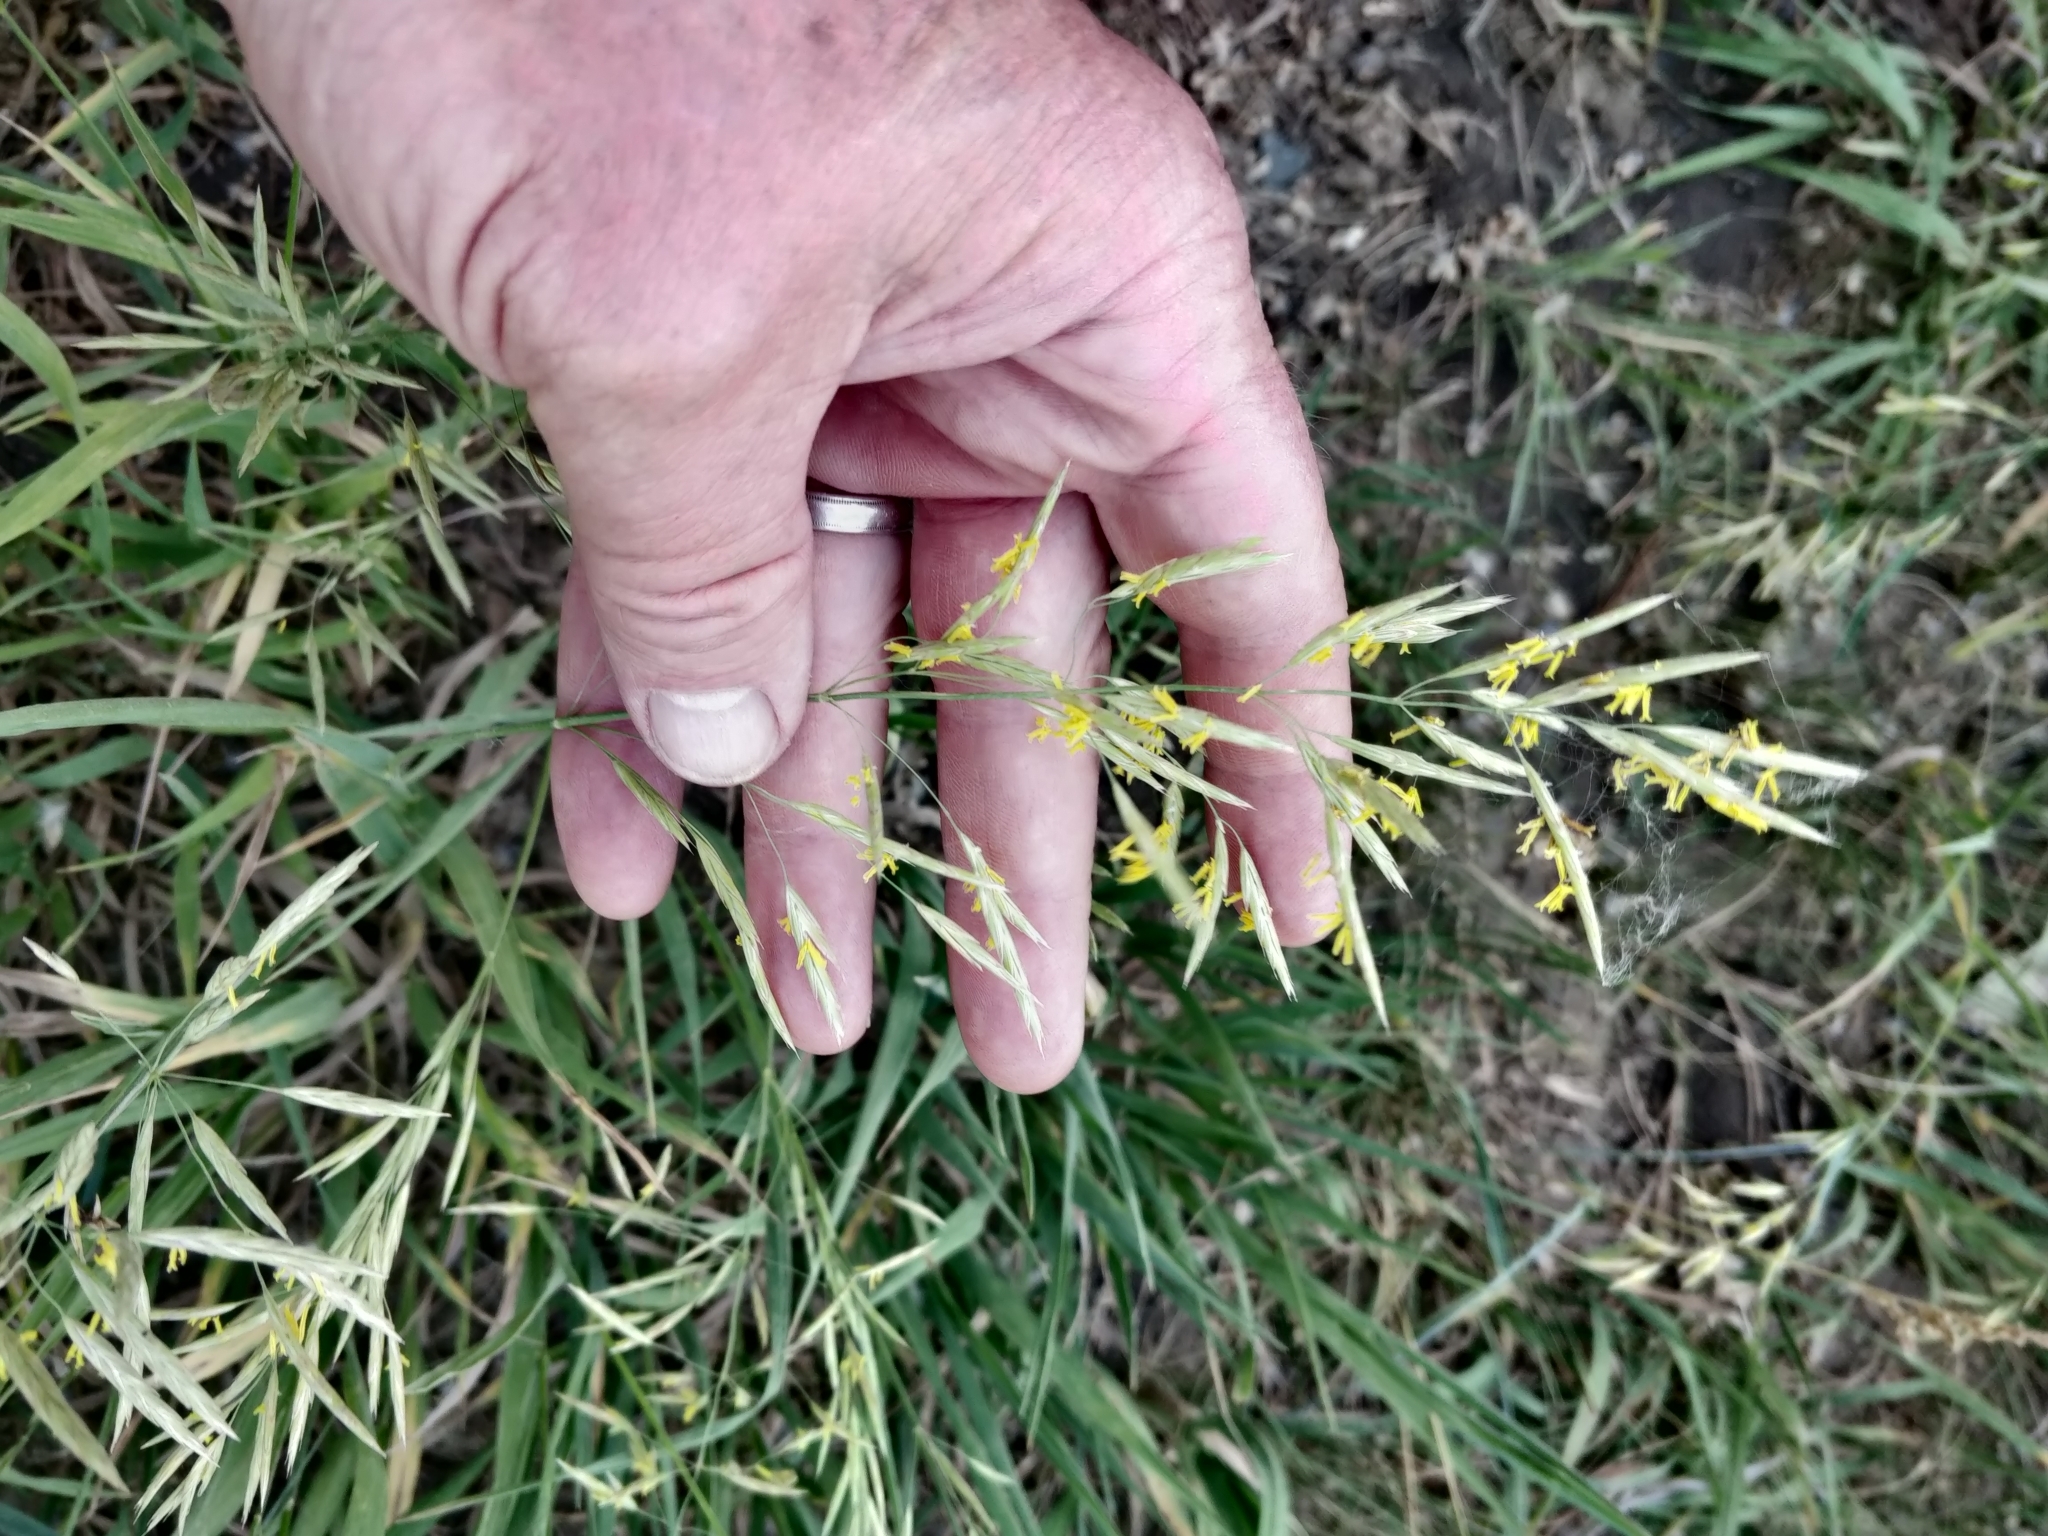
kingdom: Plantae
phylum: Tracheophyta
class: Liliopsida
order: Poales
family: Poaceae
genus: Bromus
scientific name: Bromus inermis
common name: Smooth brome
